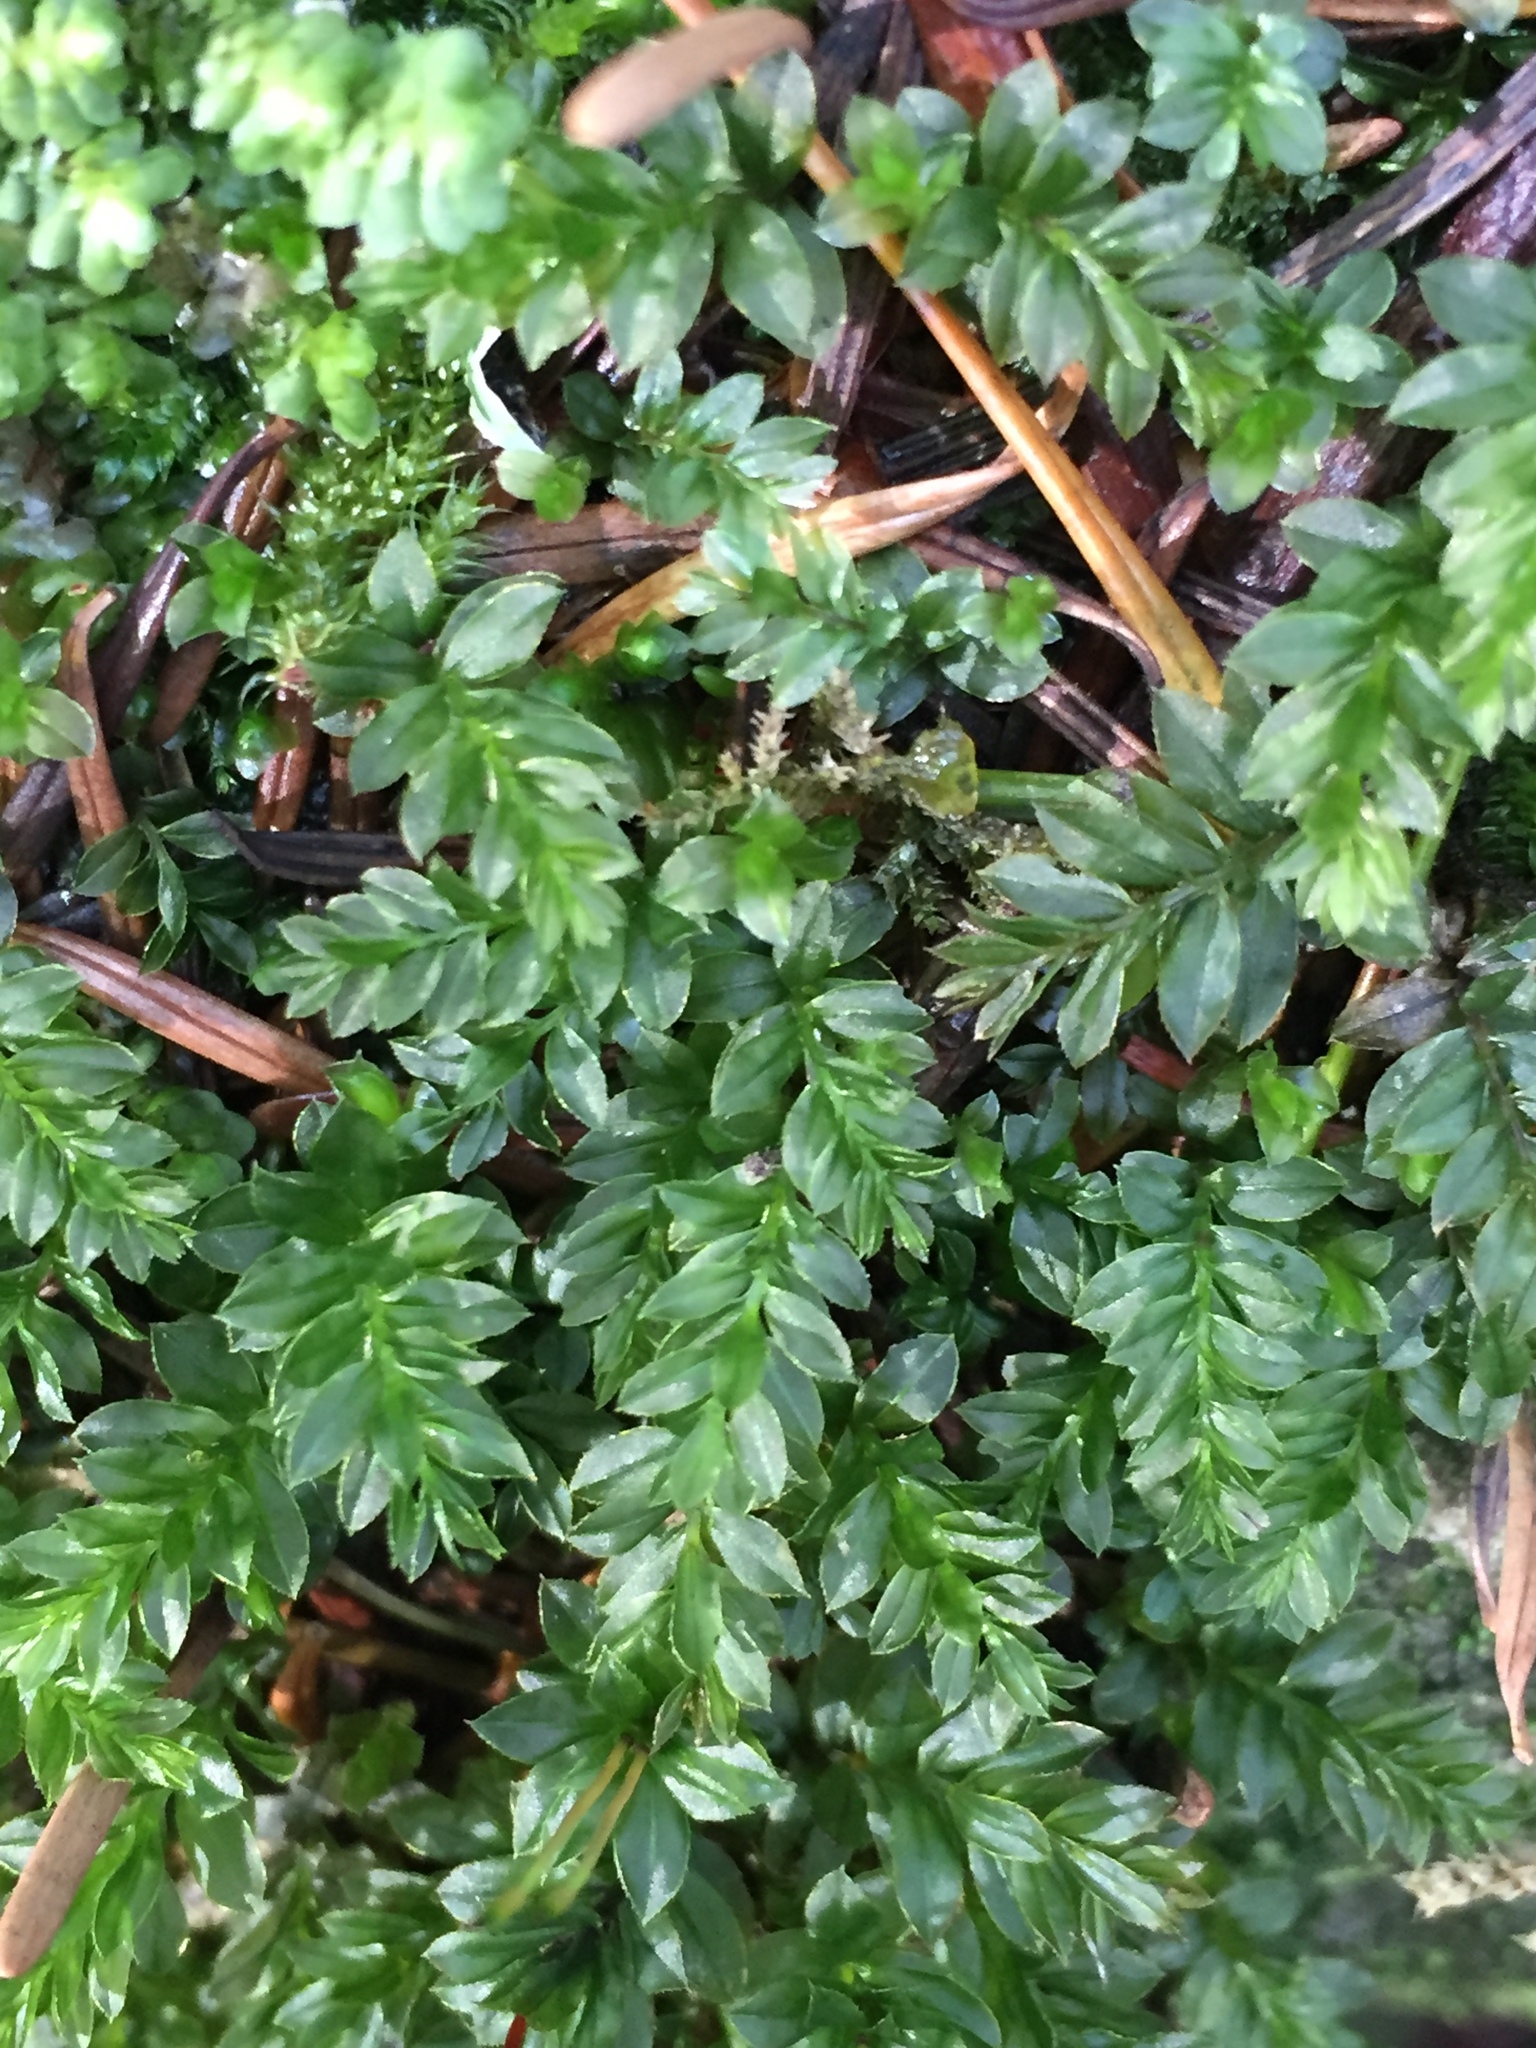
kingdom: Plantae
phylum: Bryophyta
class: Bryopsida
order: Bryales
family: Mniaceae
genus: Plagiomnium
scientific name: Plagiomnium insigne
